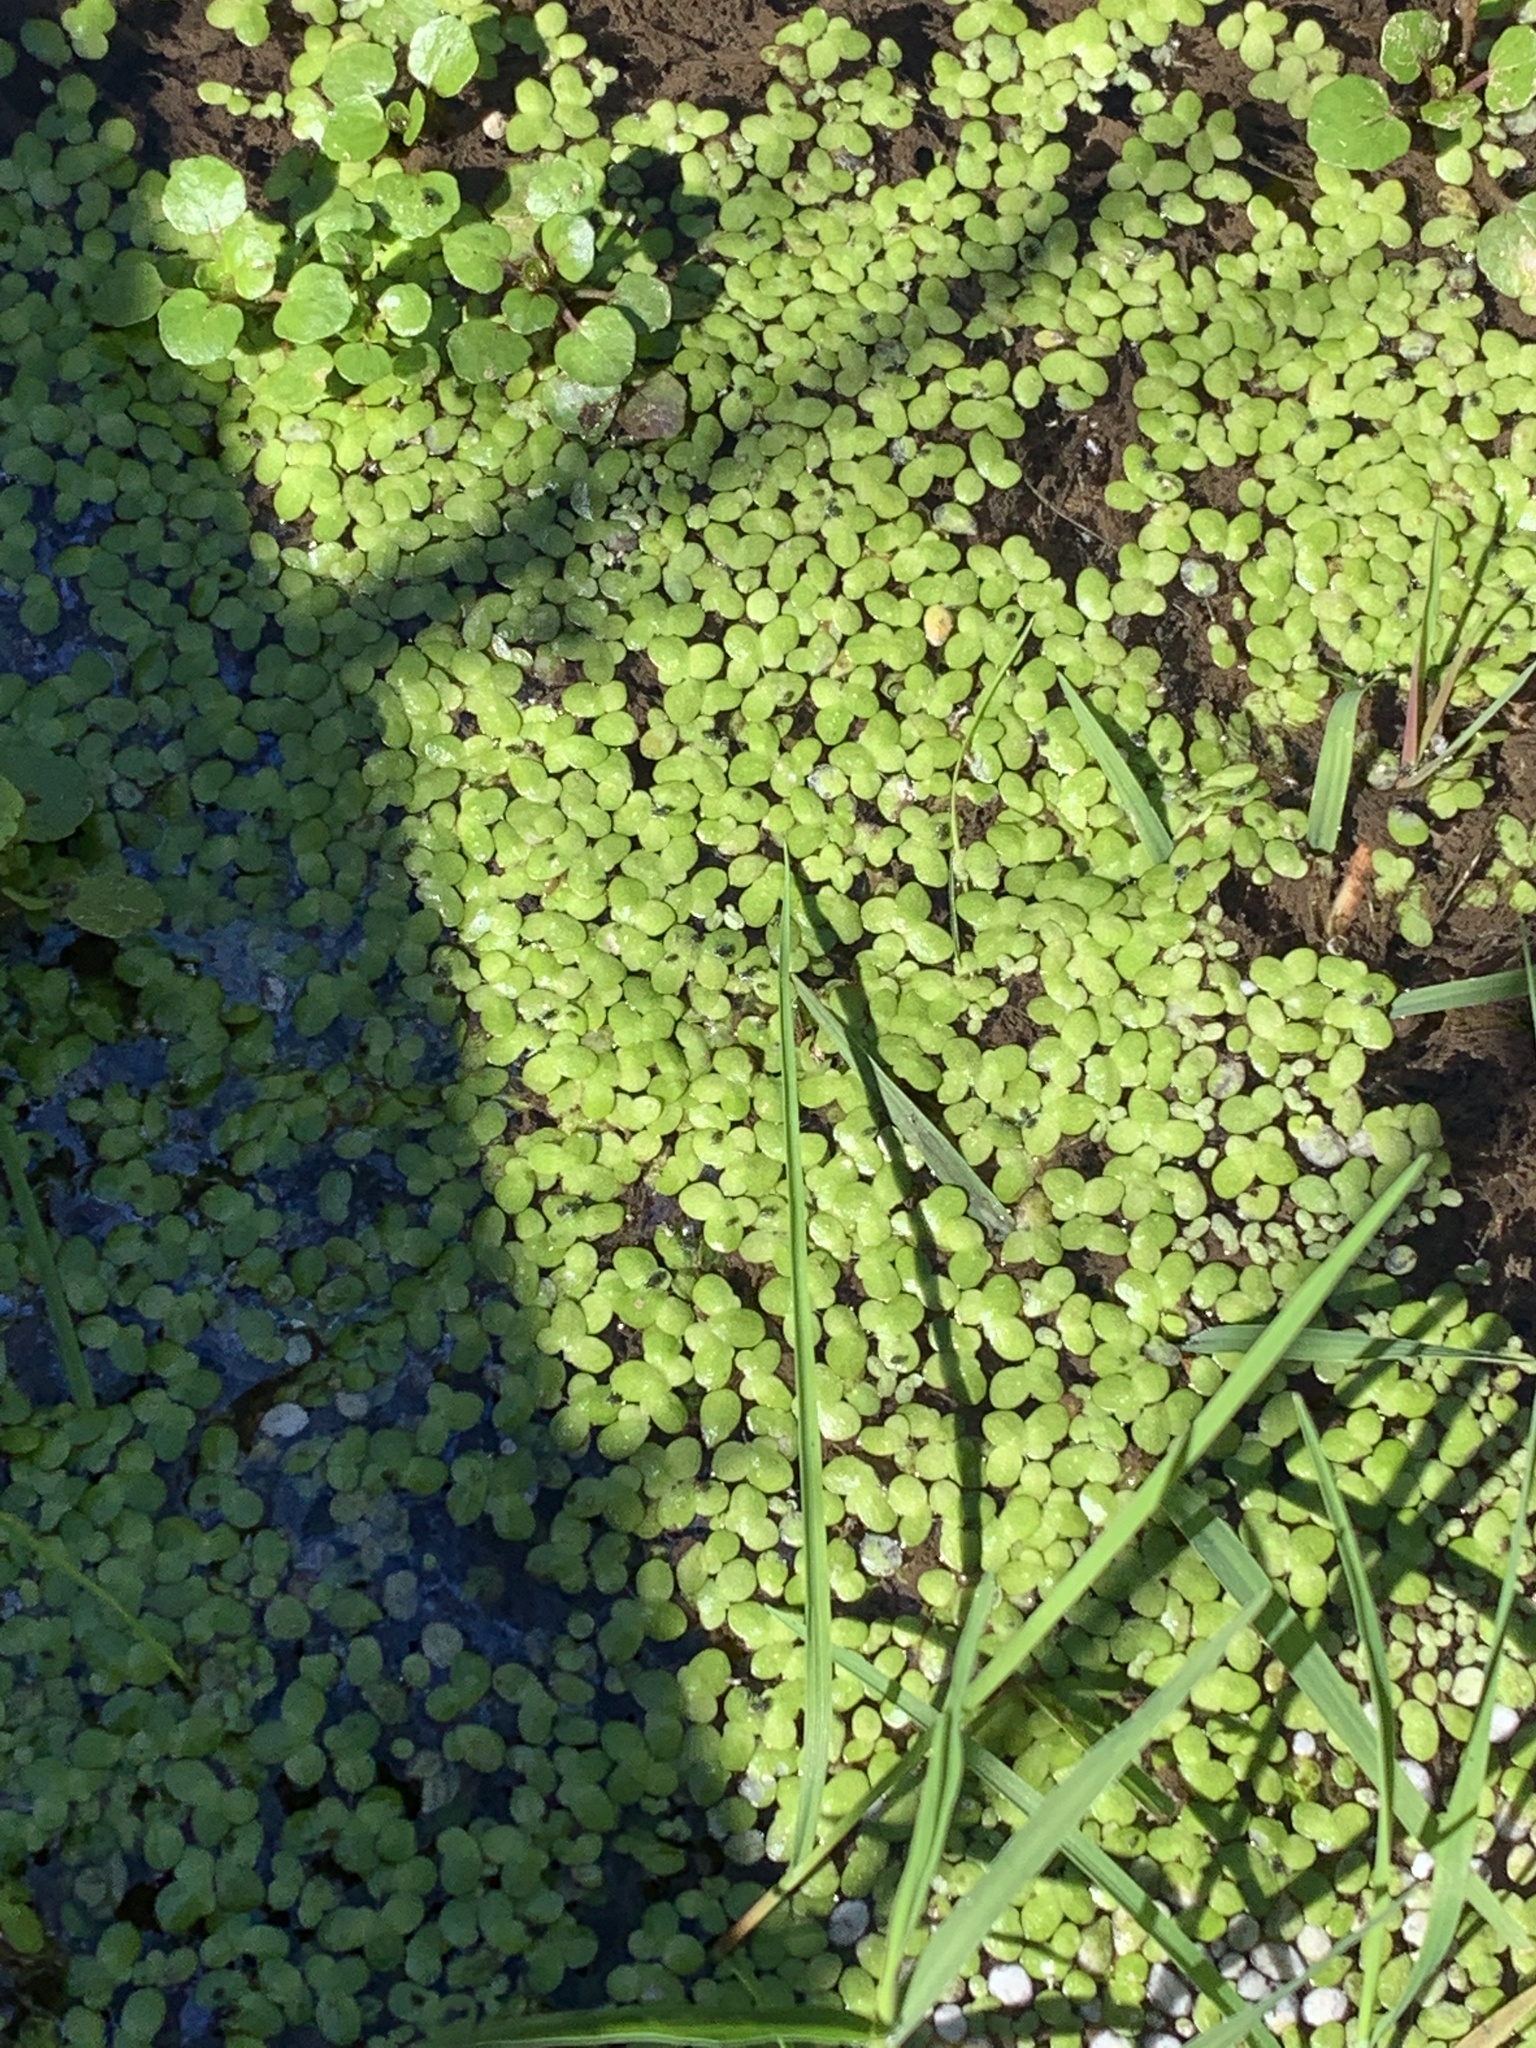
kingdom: Plantae
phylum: Tracheophyta
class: Liliopsida
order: Alismatales
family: Araceae
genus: Lemna
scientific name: Lemna minor
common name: Common duckweed
